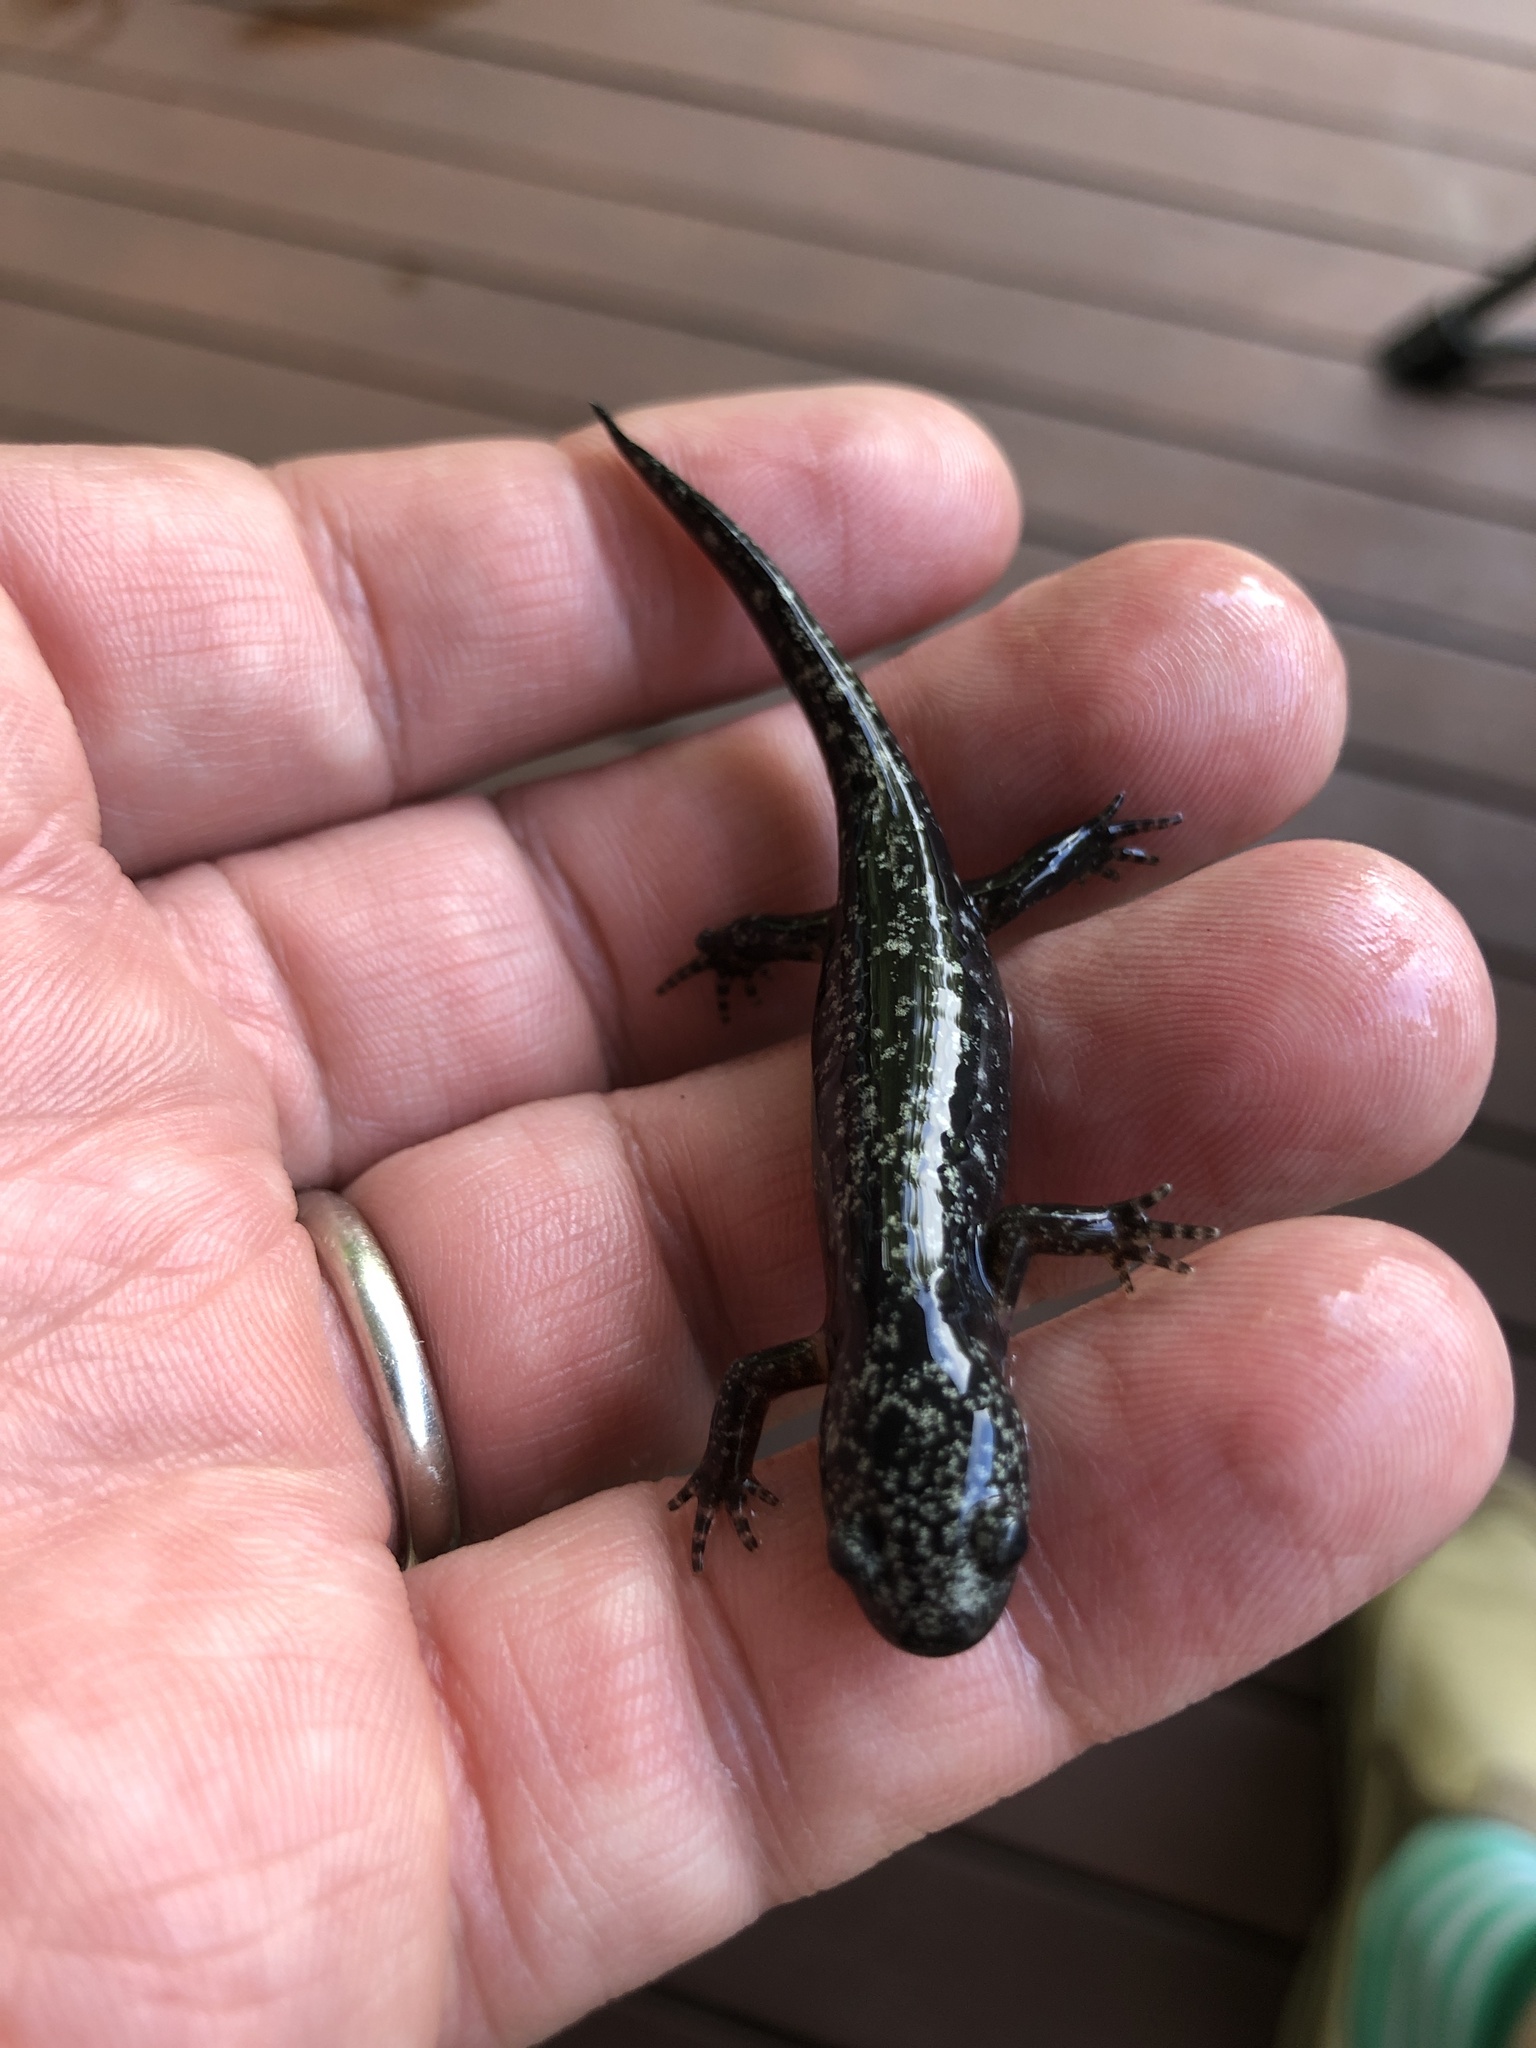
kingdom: Animalia
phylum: Chordata
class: Amphibia
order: Caudata
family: Ambystomatidae
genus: Ambystoma
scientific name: Ambystoma opacum
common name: Marbled salamander
